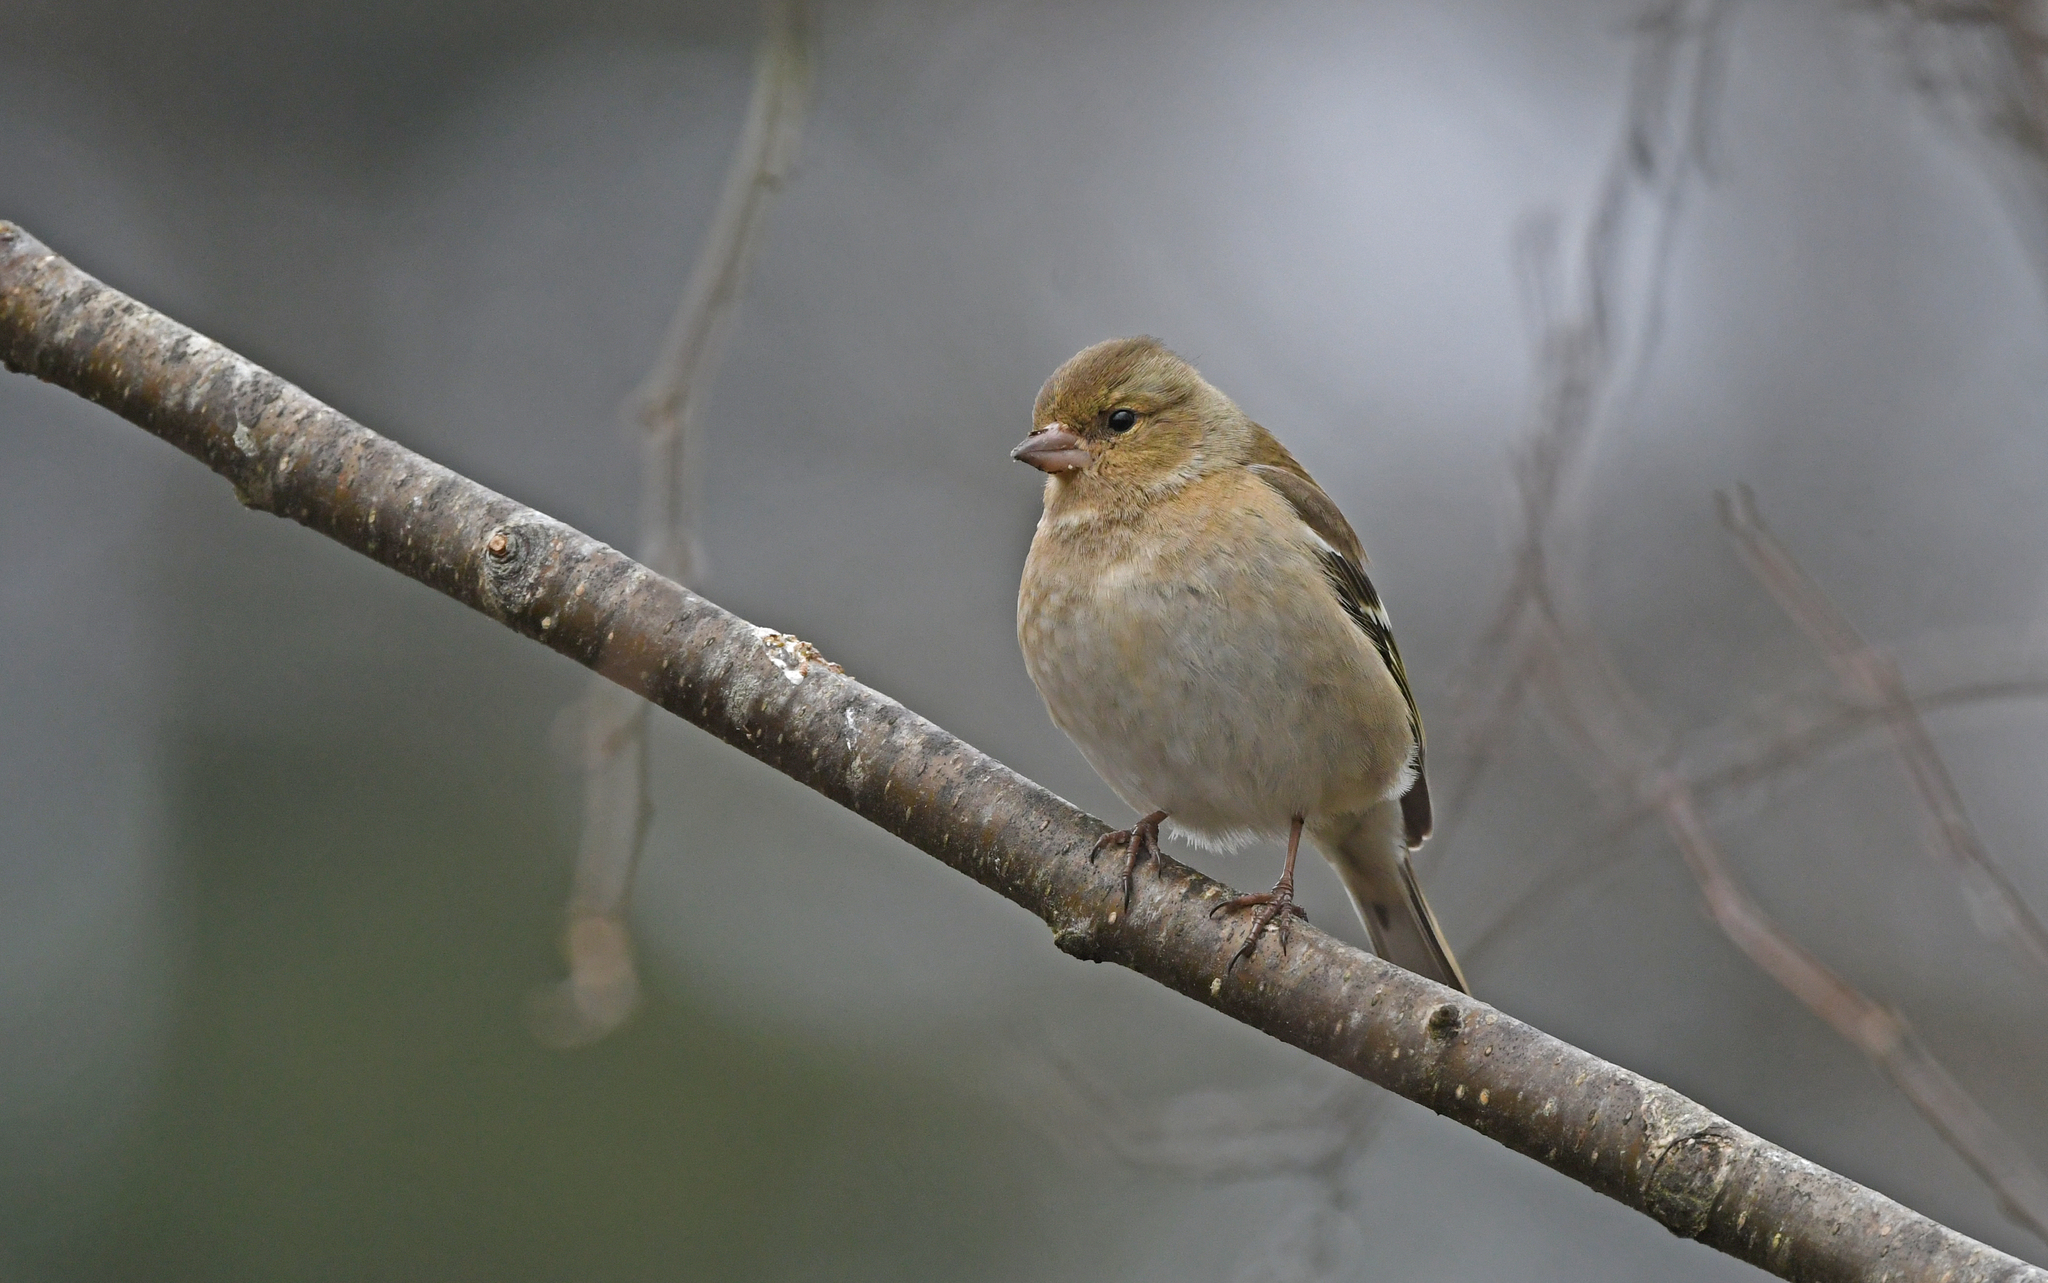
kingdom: Animalia
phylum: Chordata
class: Aves
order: Passeriformes
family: Fringillidae
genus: Fringilla
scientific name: Fringilla coelebs
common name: Common chaffinch
